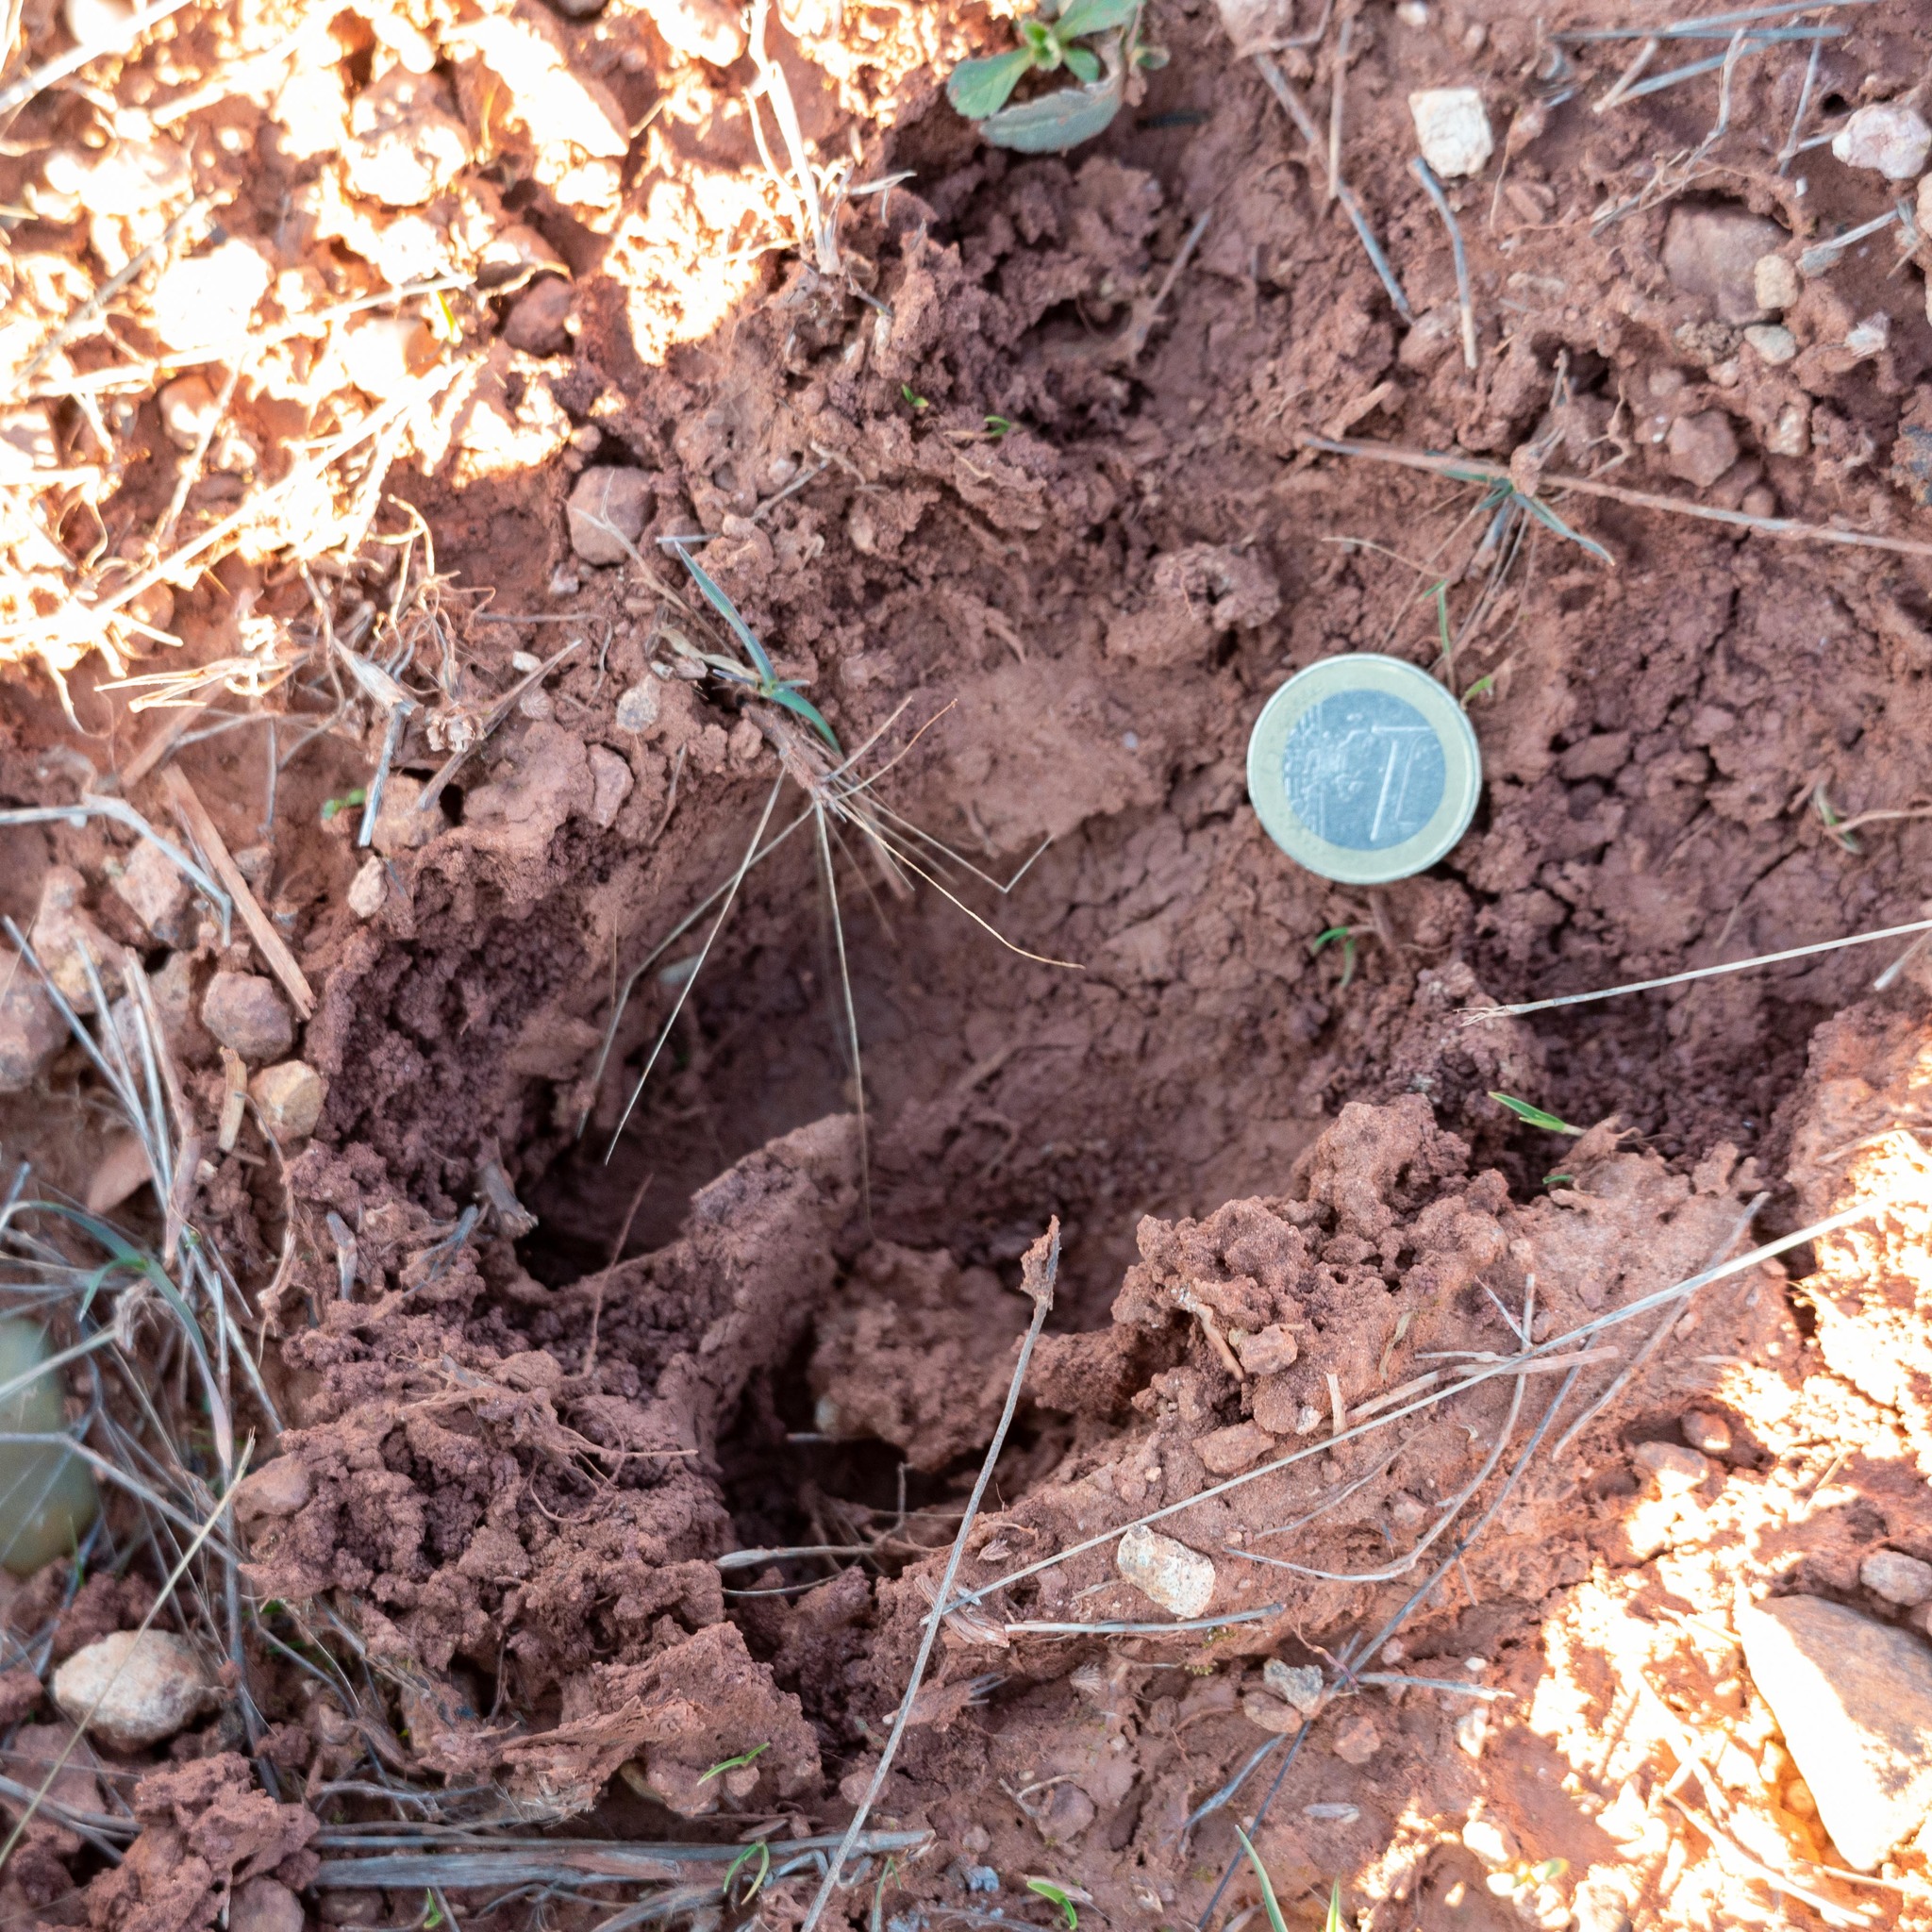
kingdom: Animalia
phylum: Chordata
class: Mammalia
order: Artiodactyla
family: Suidae
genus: Sus
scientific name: Sus scrofa
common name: Wild boar
